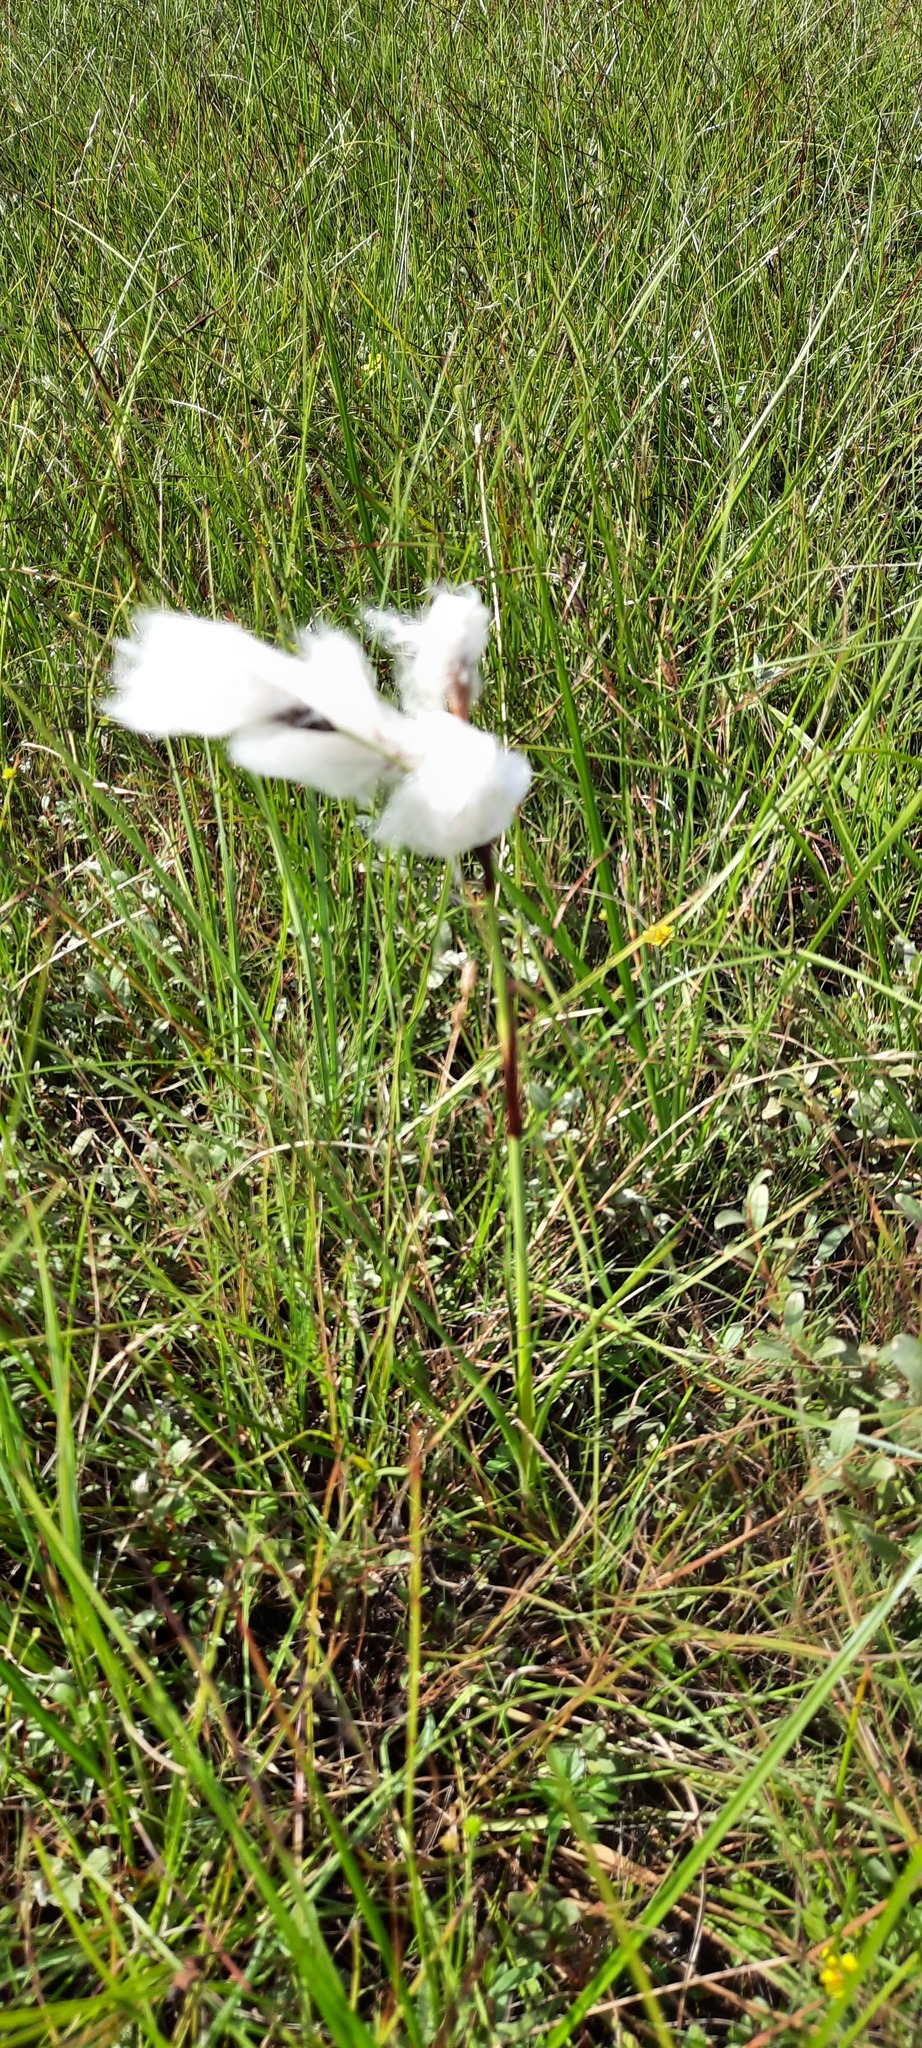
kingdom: Plantae
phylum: Tracheophyta
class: Liliopsida
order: Poales
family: Cyperaceae
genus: Eriophorum
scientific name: Eriophorum angustifolium
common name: Common cottongrass
